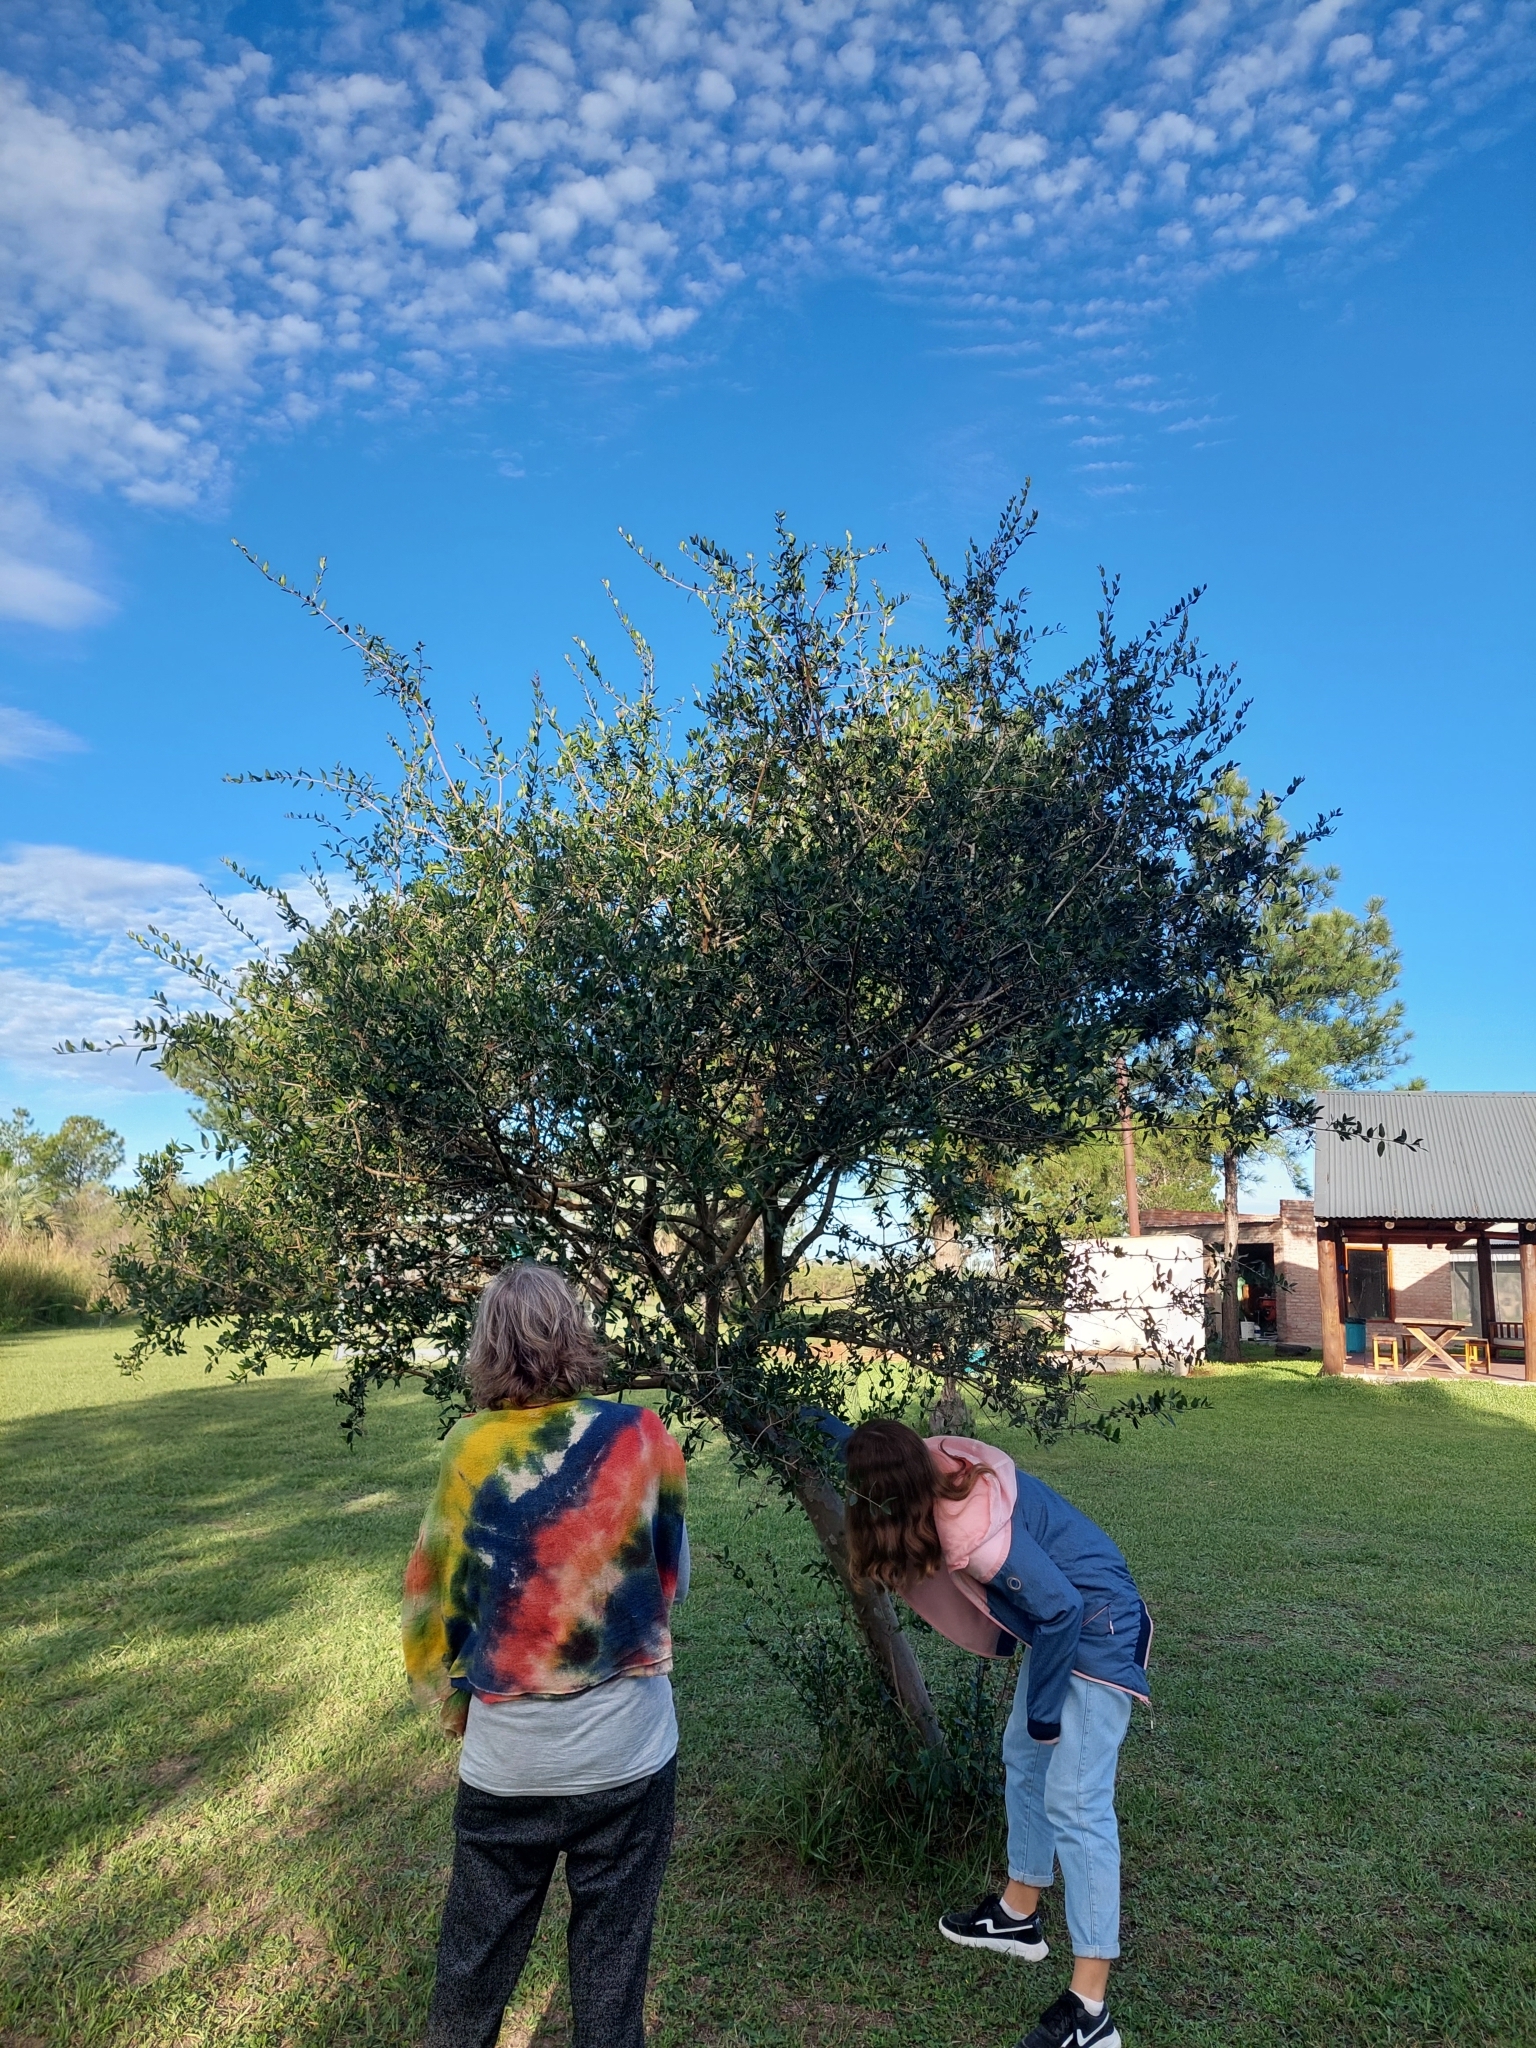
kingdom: Plantae
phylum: Tracheophyta
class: Magnoliopsida
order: Myrtales
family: Myrtaceae
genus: Myrcianthes
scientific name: Myrcianthes cisplatensis
